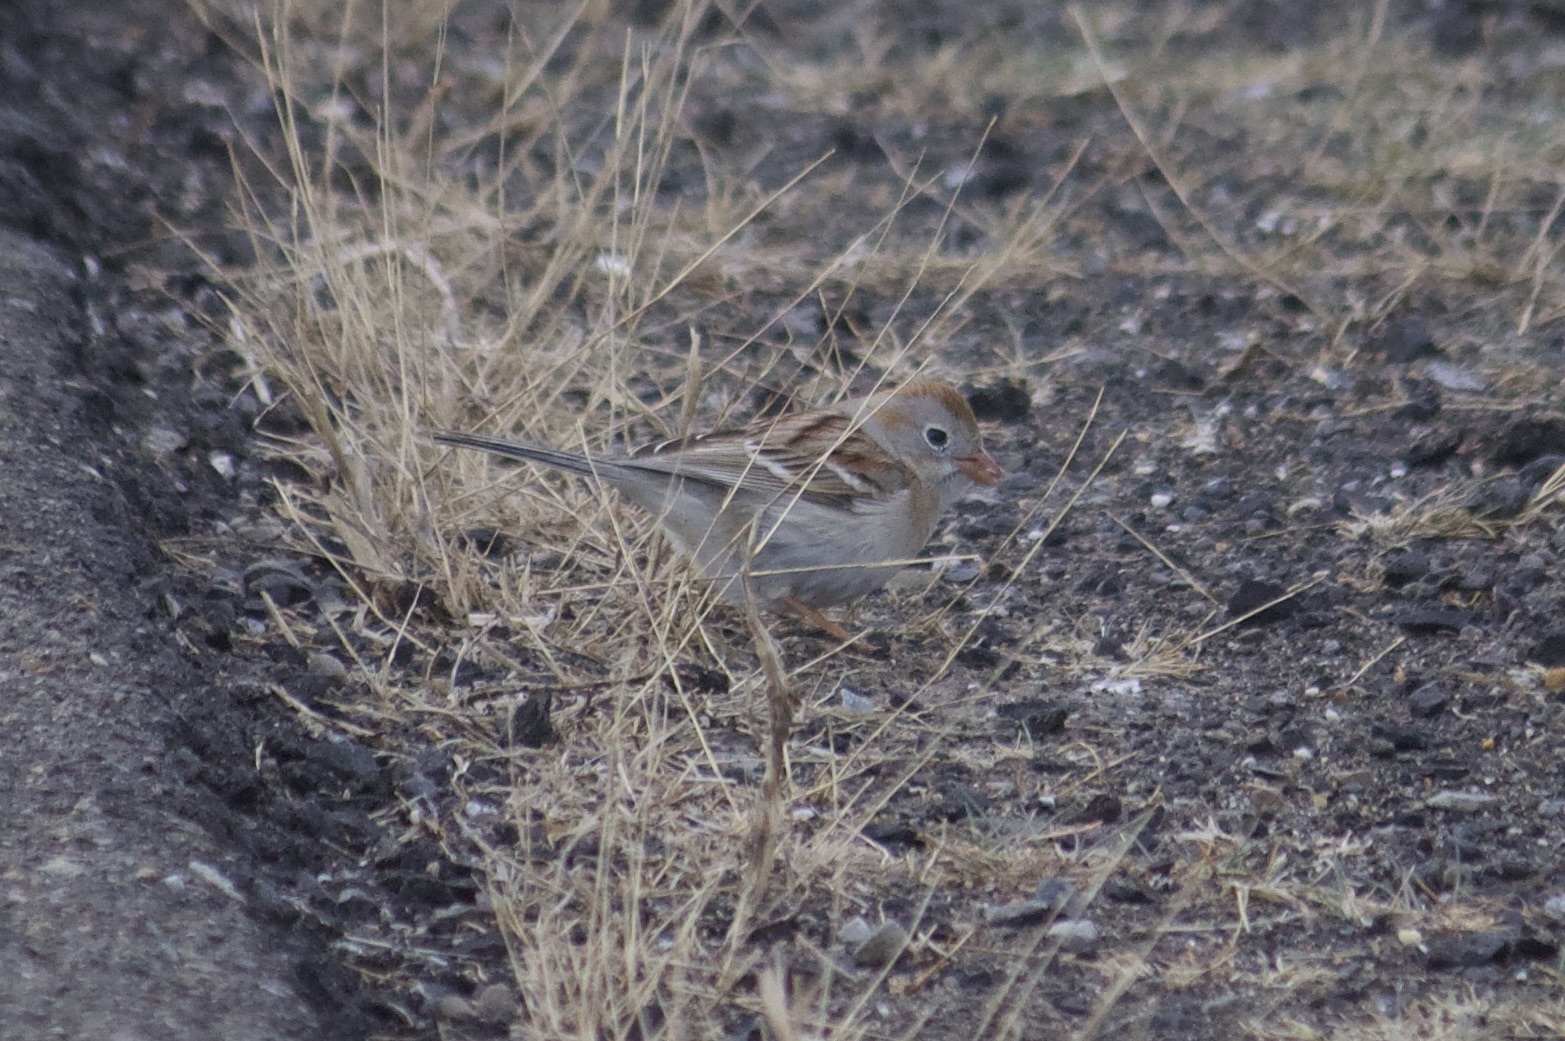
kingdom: Animalia
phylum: Chordata
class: Aves
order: Passeriformes
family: Passerellidae
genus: Spizella
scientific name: Spizella pusilla
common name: Field sparrow
